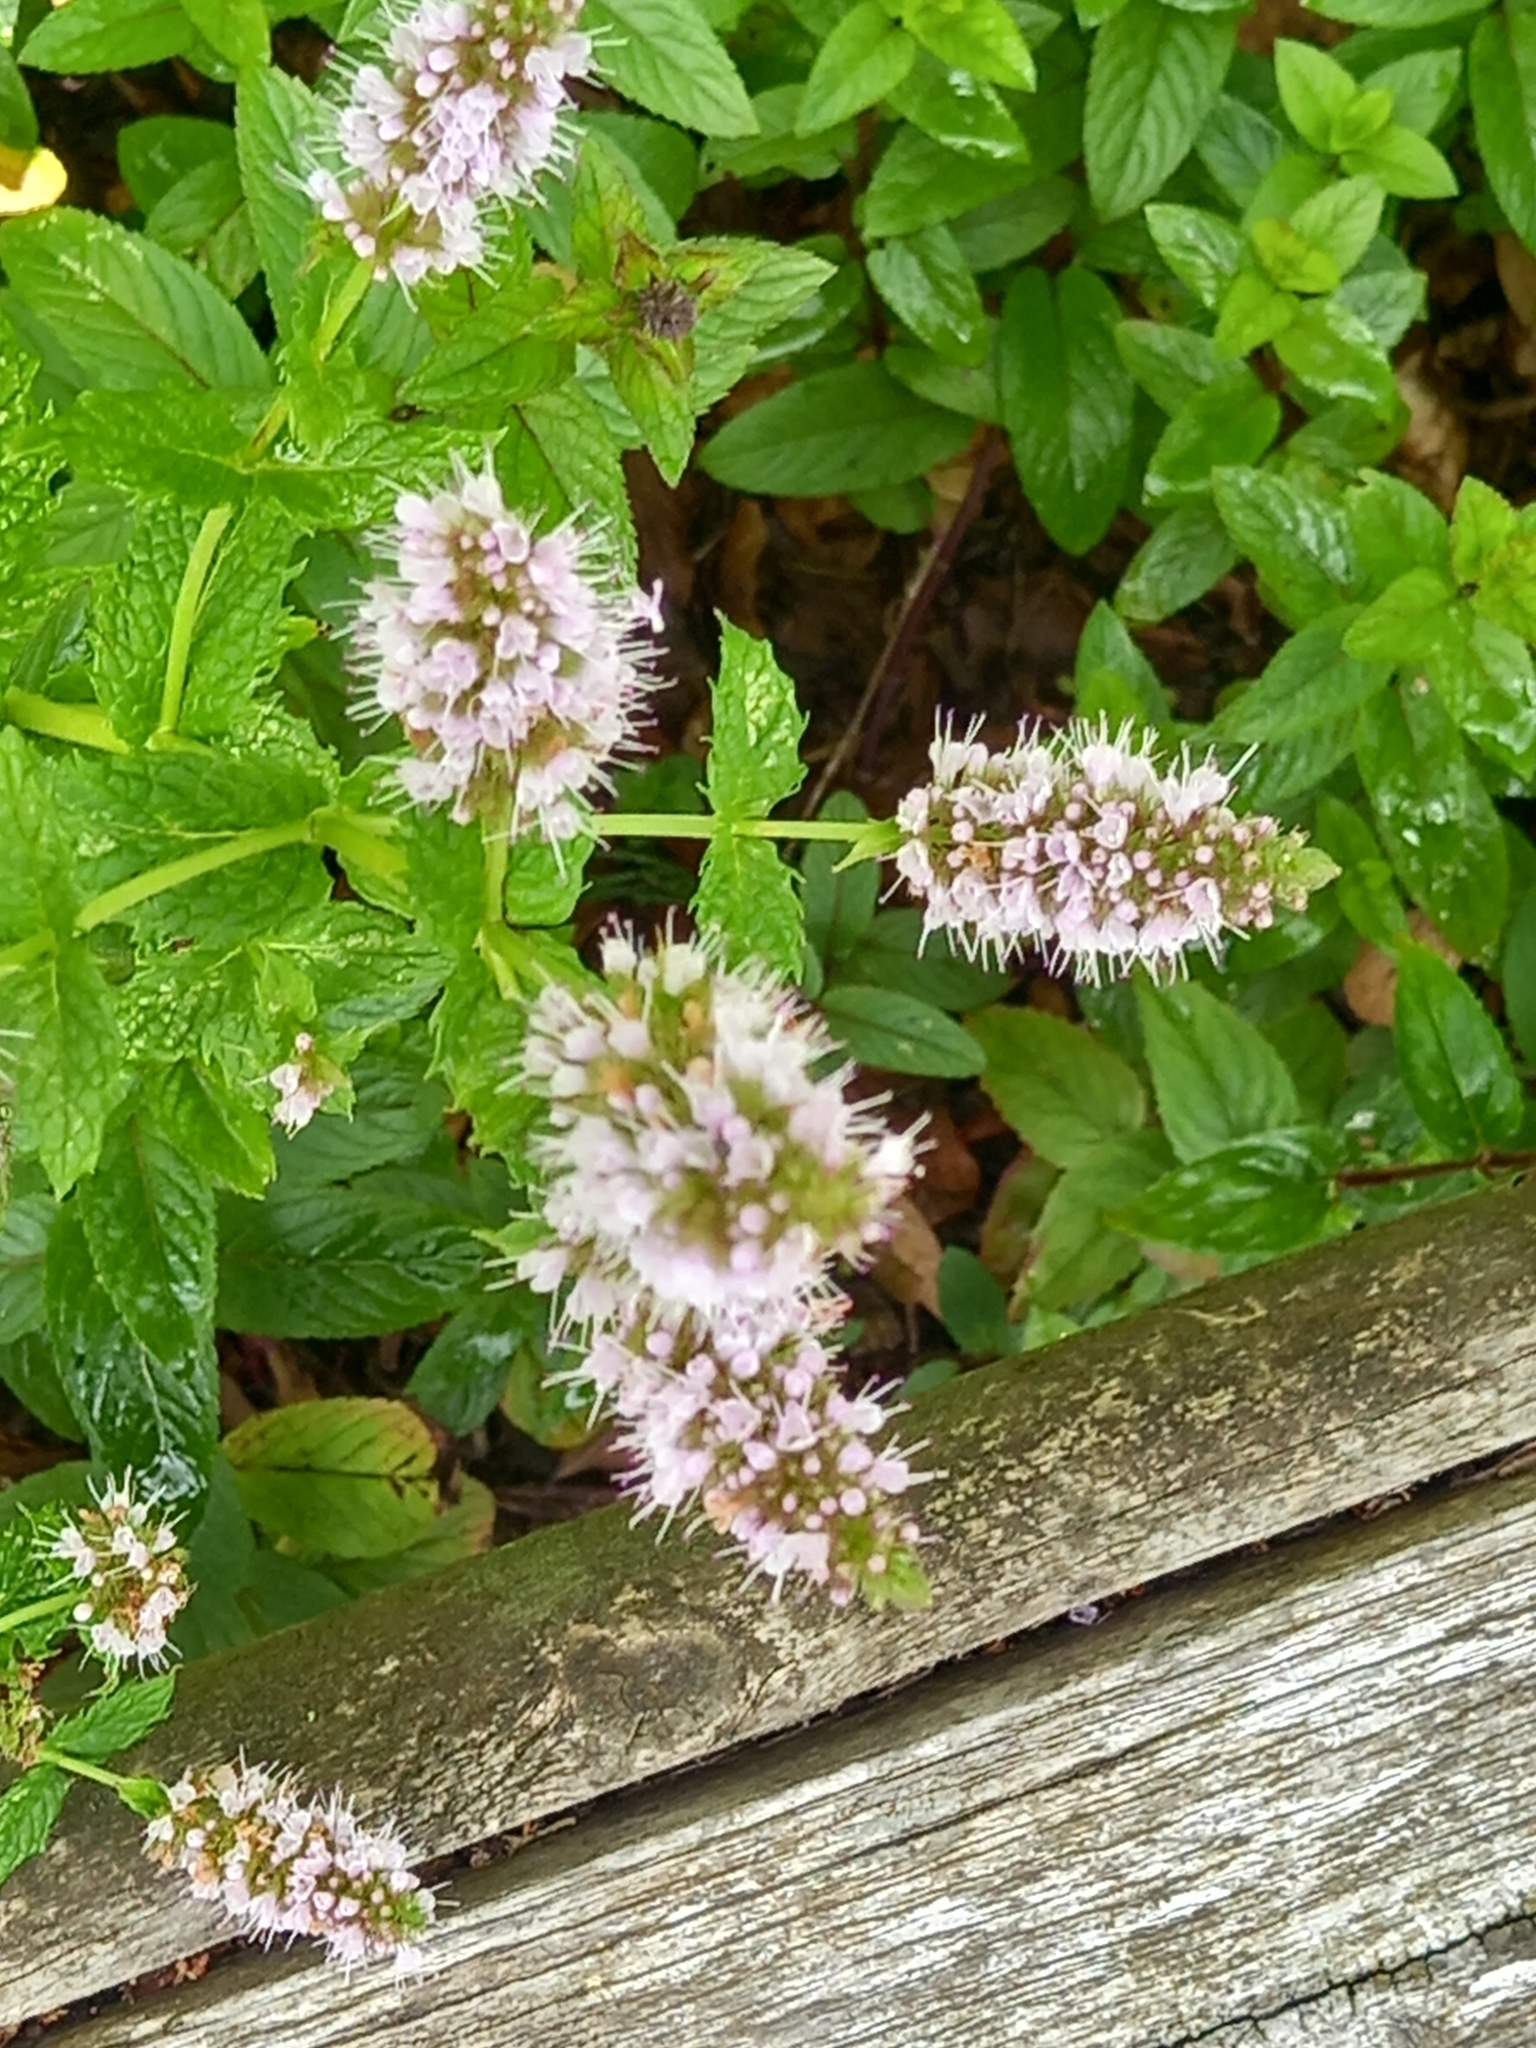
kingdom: Plantae
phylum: Tracheophyta
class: Magnoliopsida
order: Lamiales
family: Lamiaceae
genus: Mentha
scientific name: Mentha spicata
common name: Spearmint
